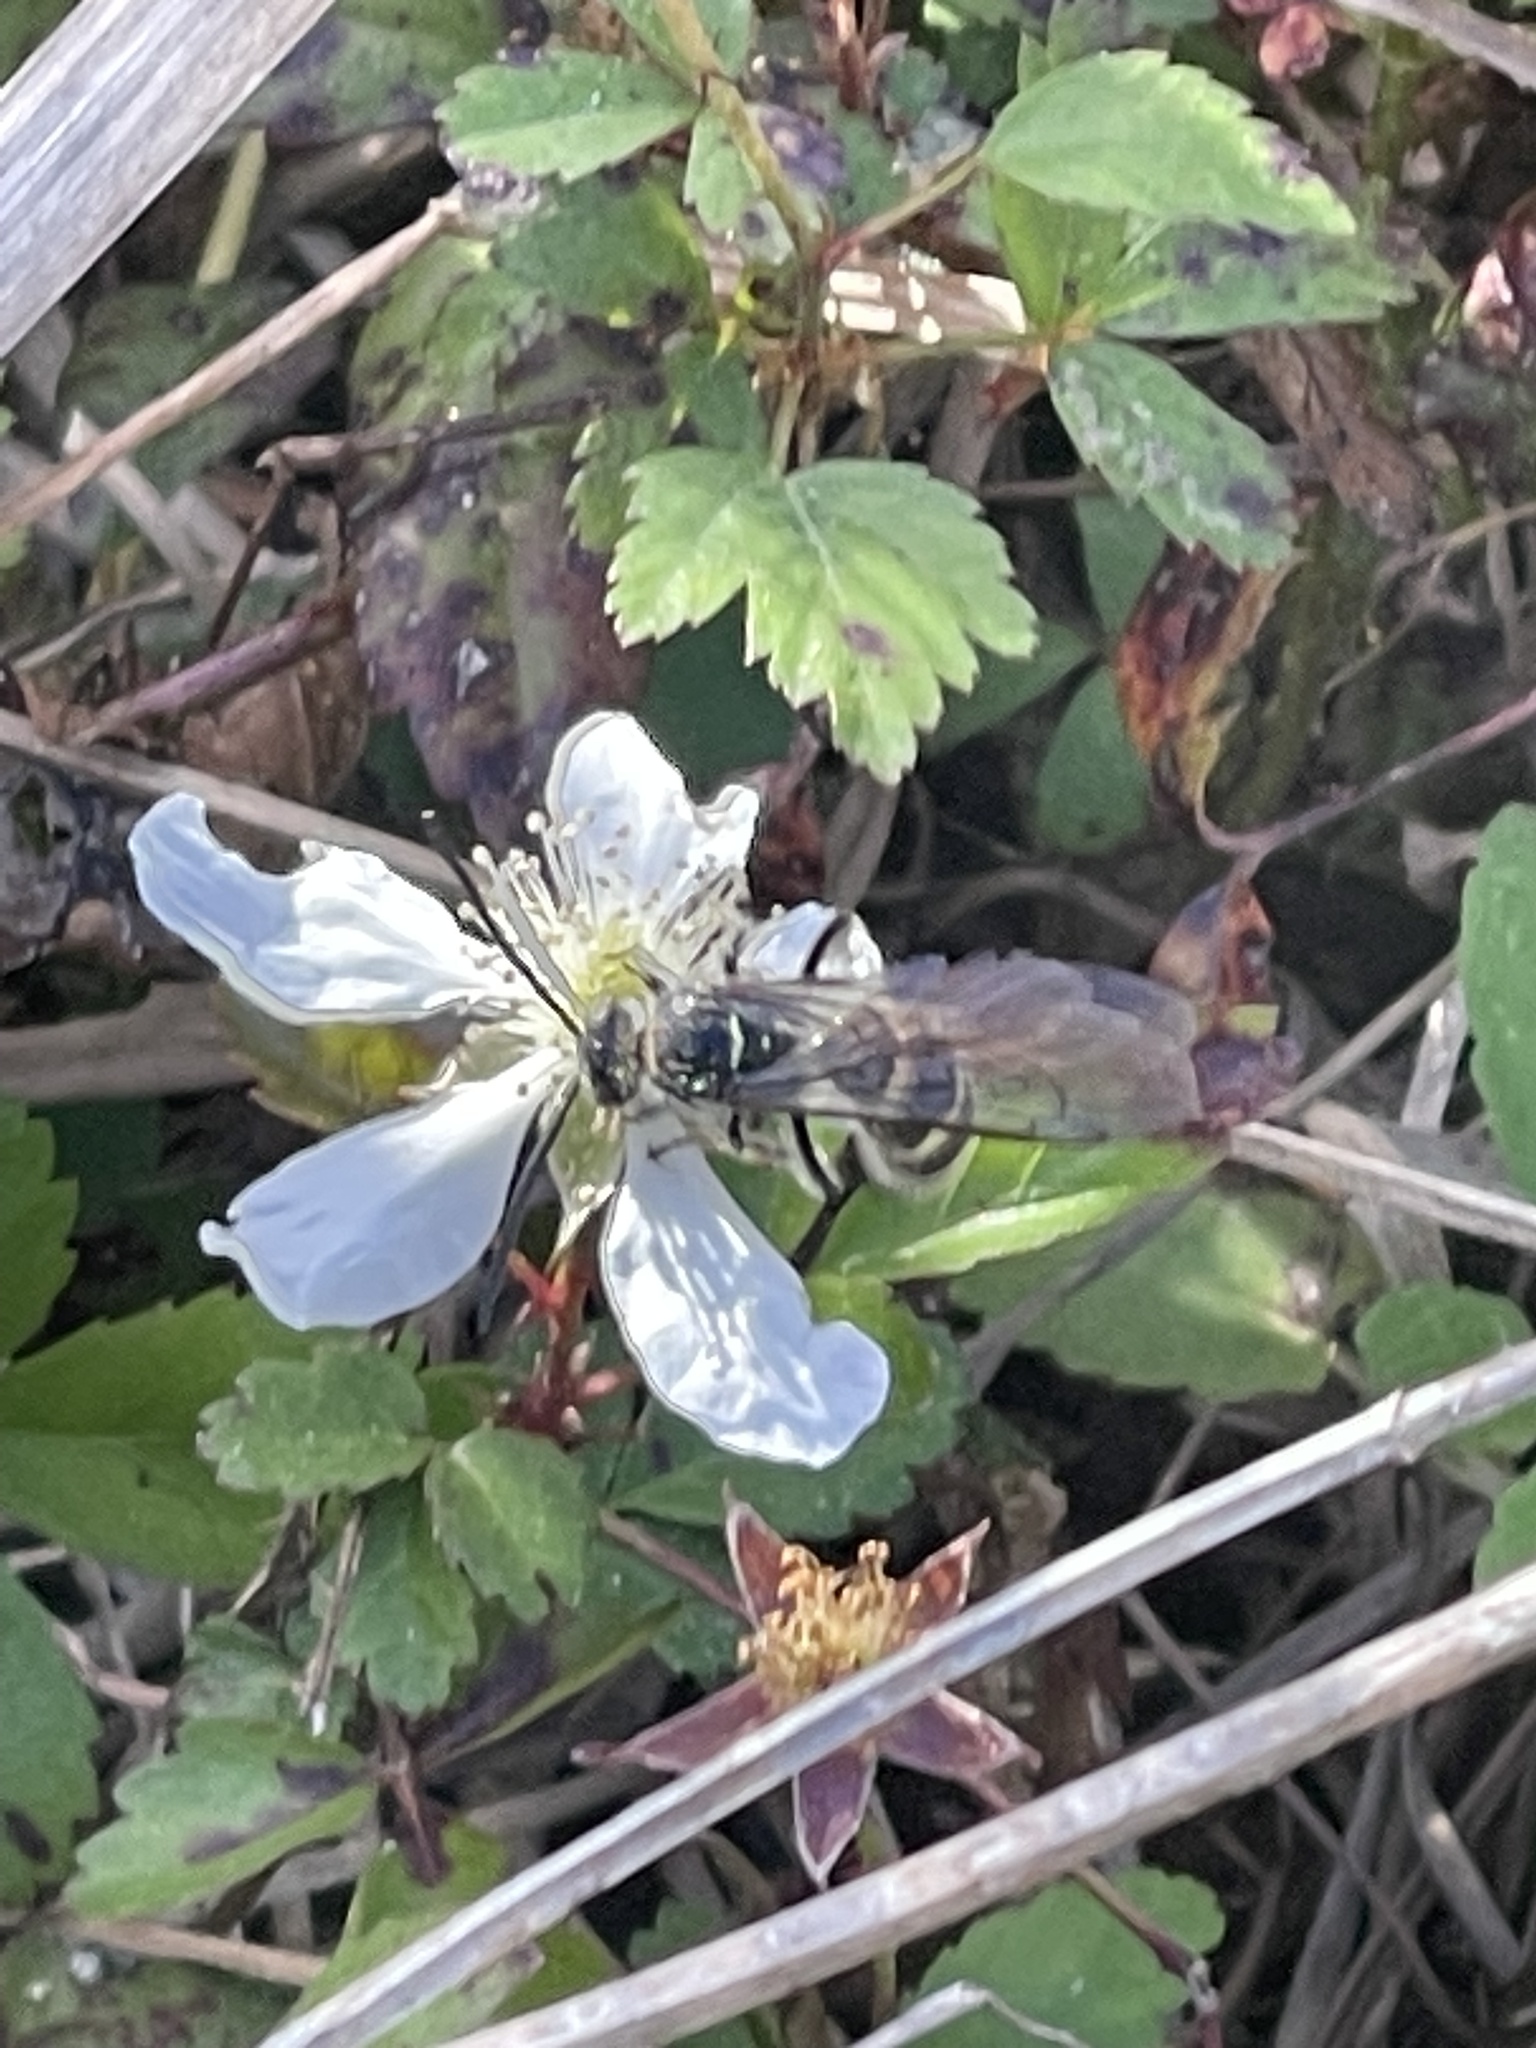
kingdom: Animalia
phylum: Arthropoda
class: Insecta
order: Hymenoptera
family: Scoliidae
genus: Dielis
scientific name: Dielis
